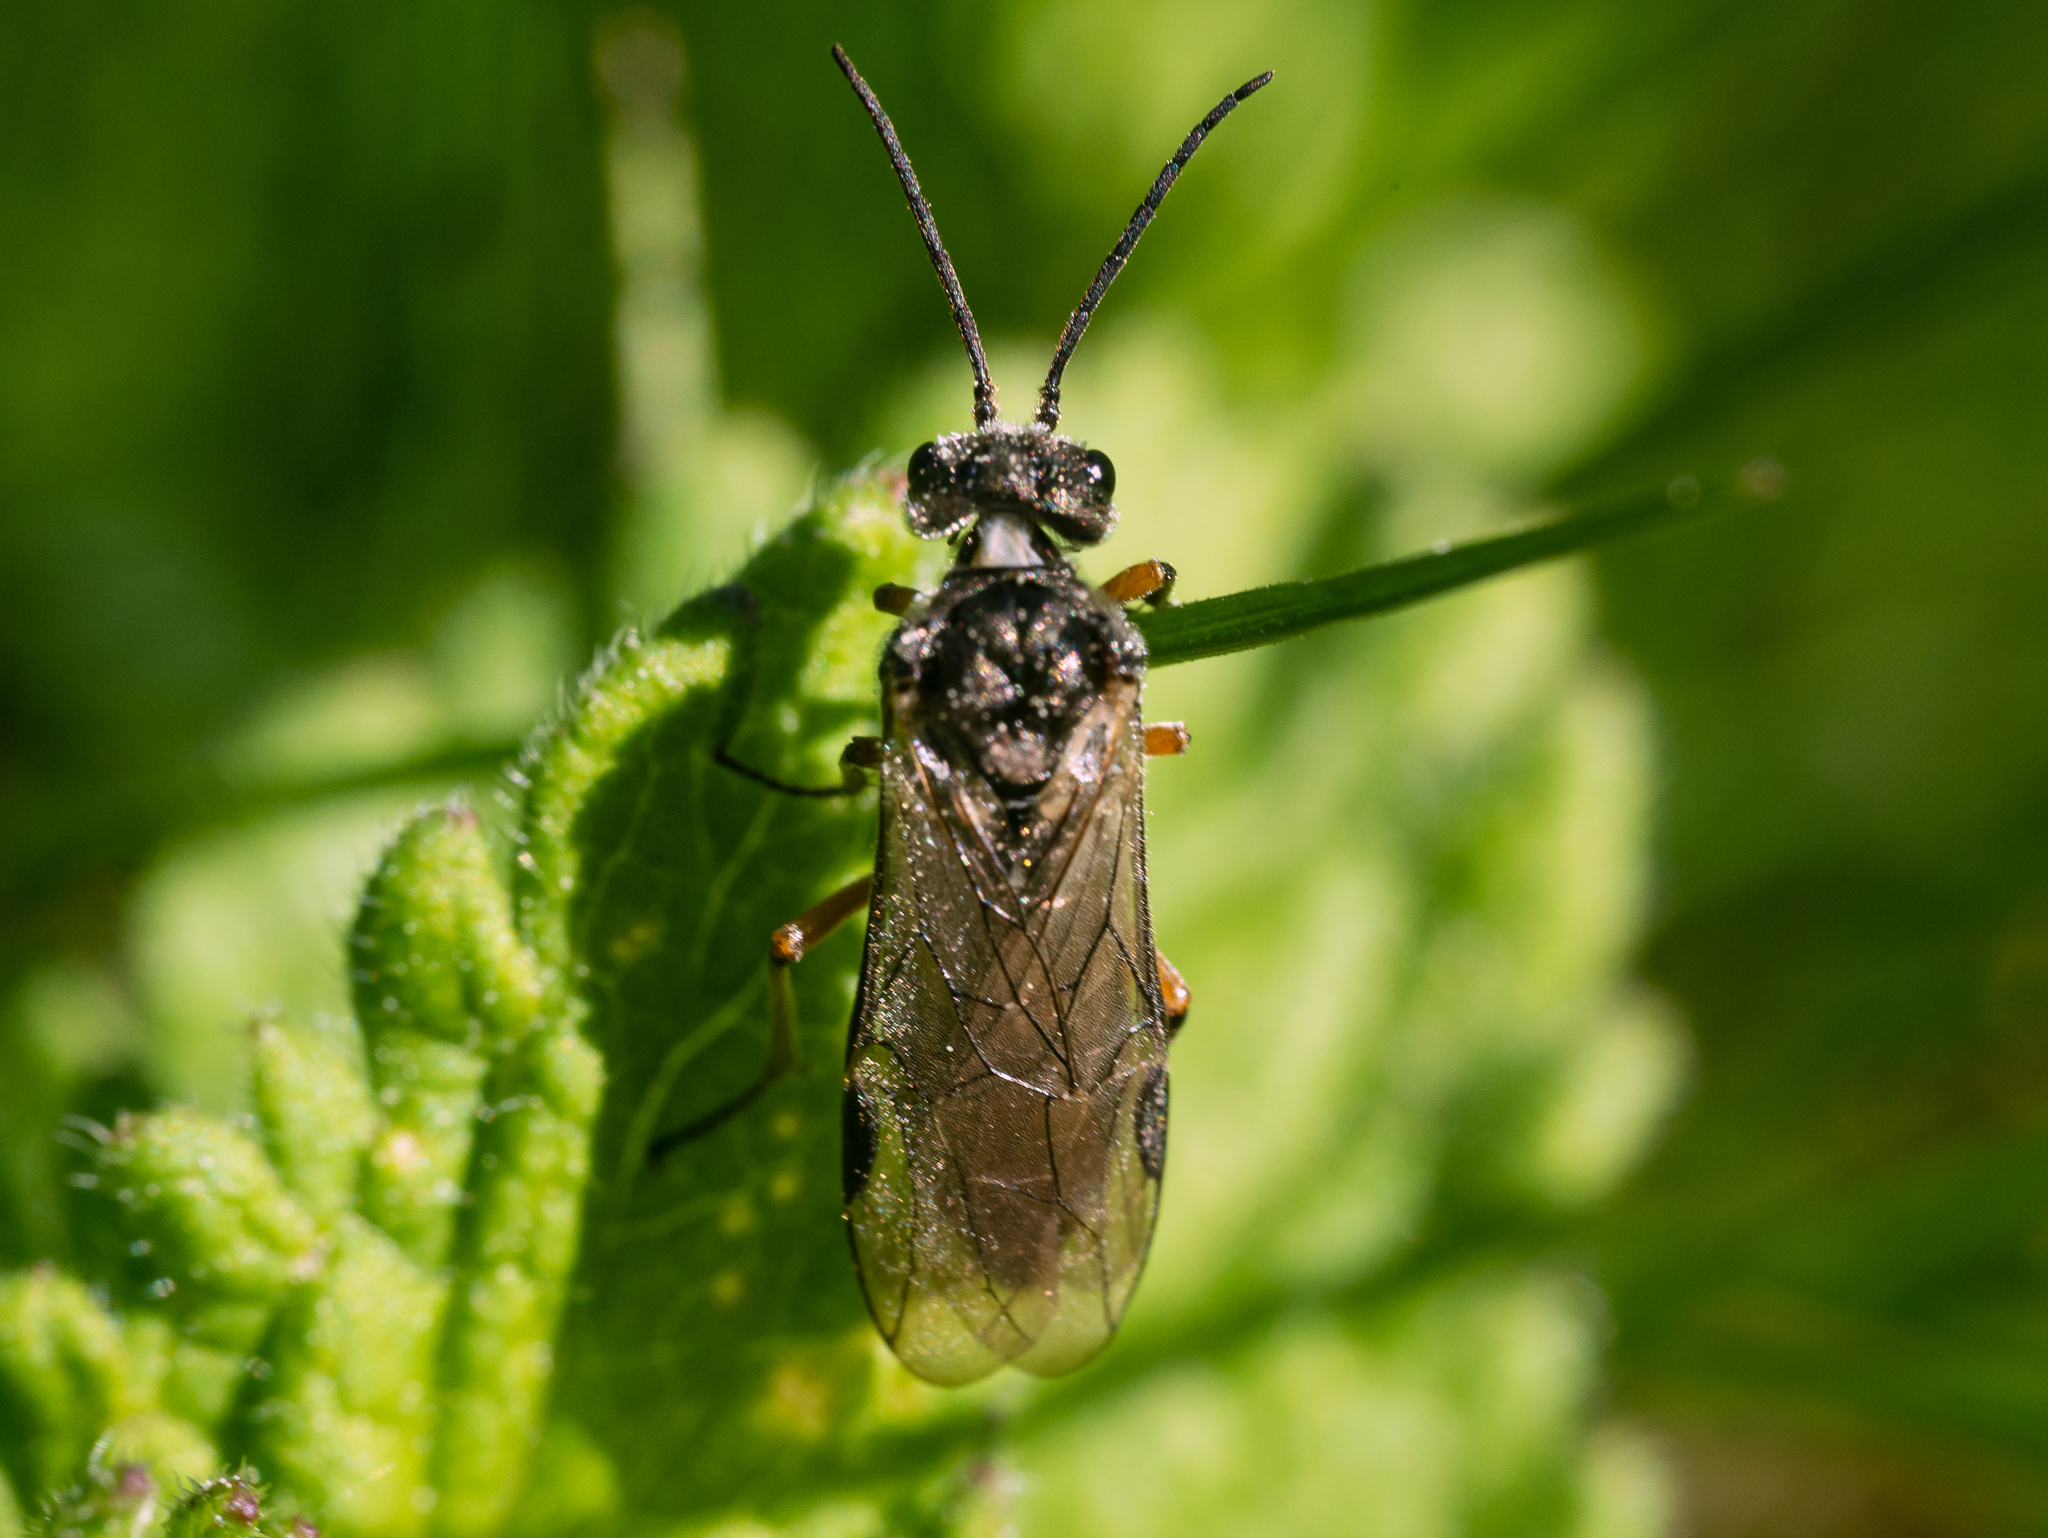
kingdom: Animalia
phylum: Arthropoda
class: Insecta
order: Hymenoptera
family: Tenthredinidae
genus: Dolerus
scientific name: Dolerus liogaster
